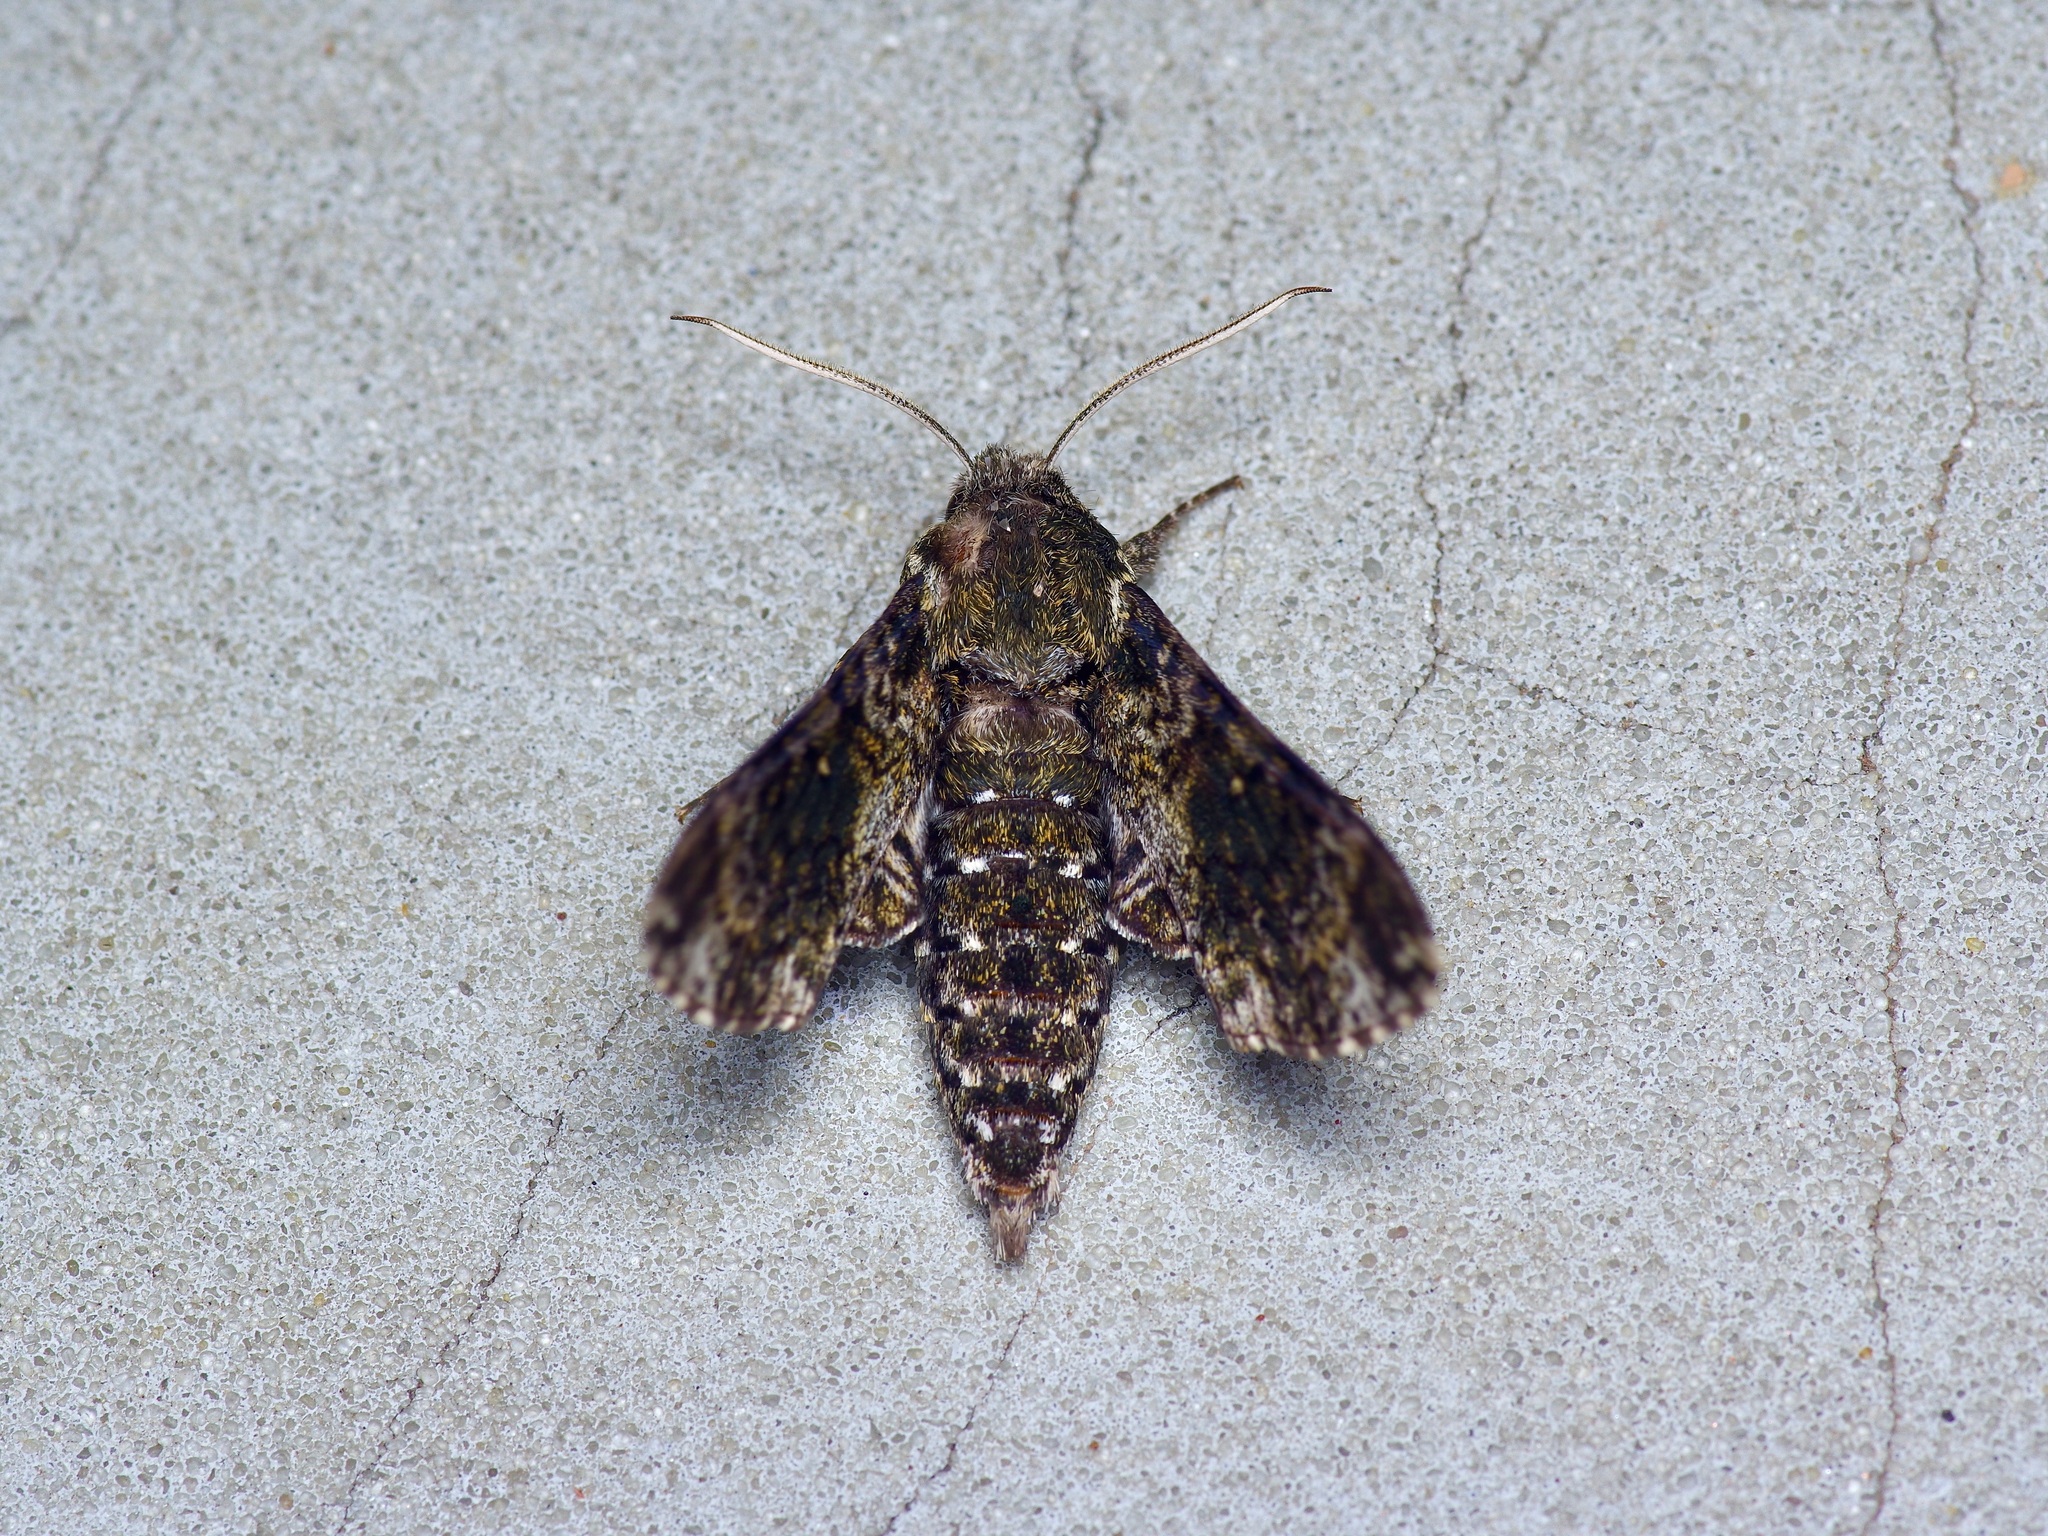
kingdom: Animalia
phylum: Arthropoda
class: Insecta
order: Lepidoptera
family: Sphingidae
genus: Dolba
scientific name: Dolba hyloeus
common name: Pawpaw sphinx
